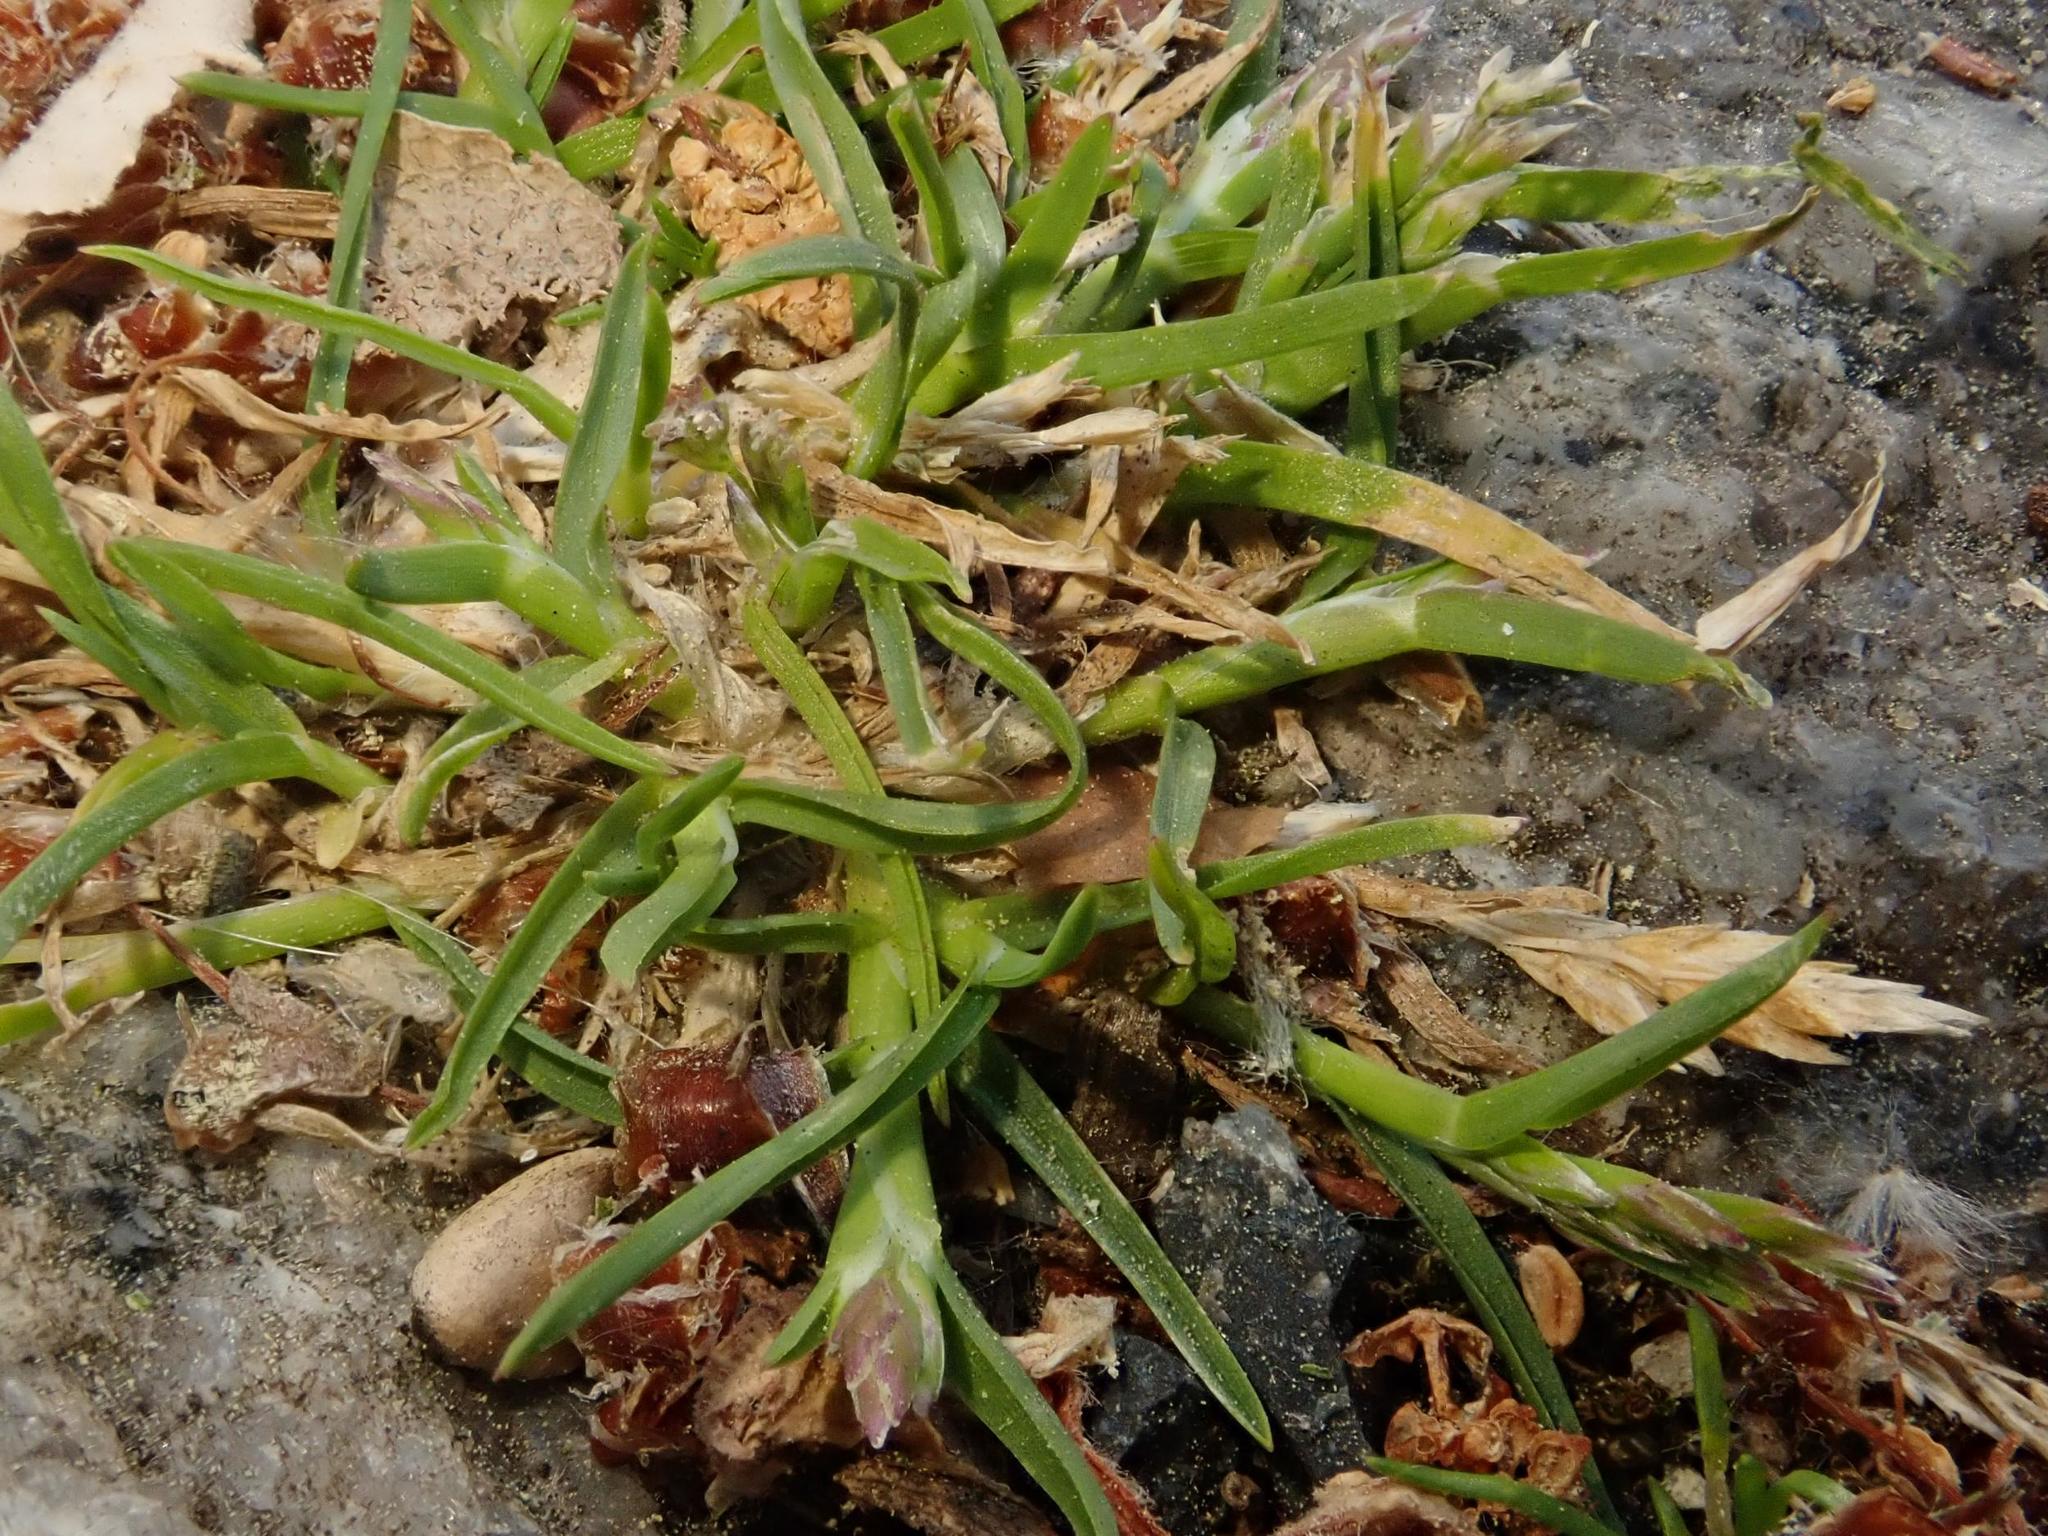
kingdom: Plantae
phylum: Tracheophyta
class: Liliopsida
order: Poales
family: Poaceae
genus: Poa
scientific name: Poa annua
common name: Annual bluegrass
